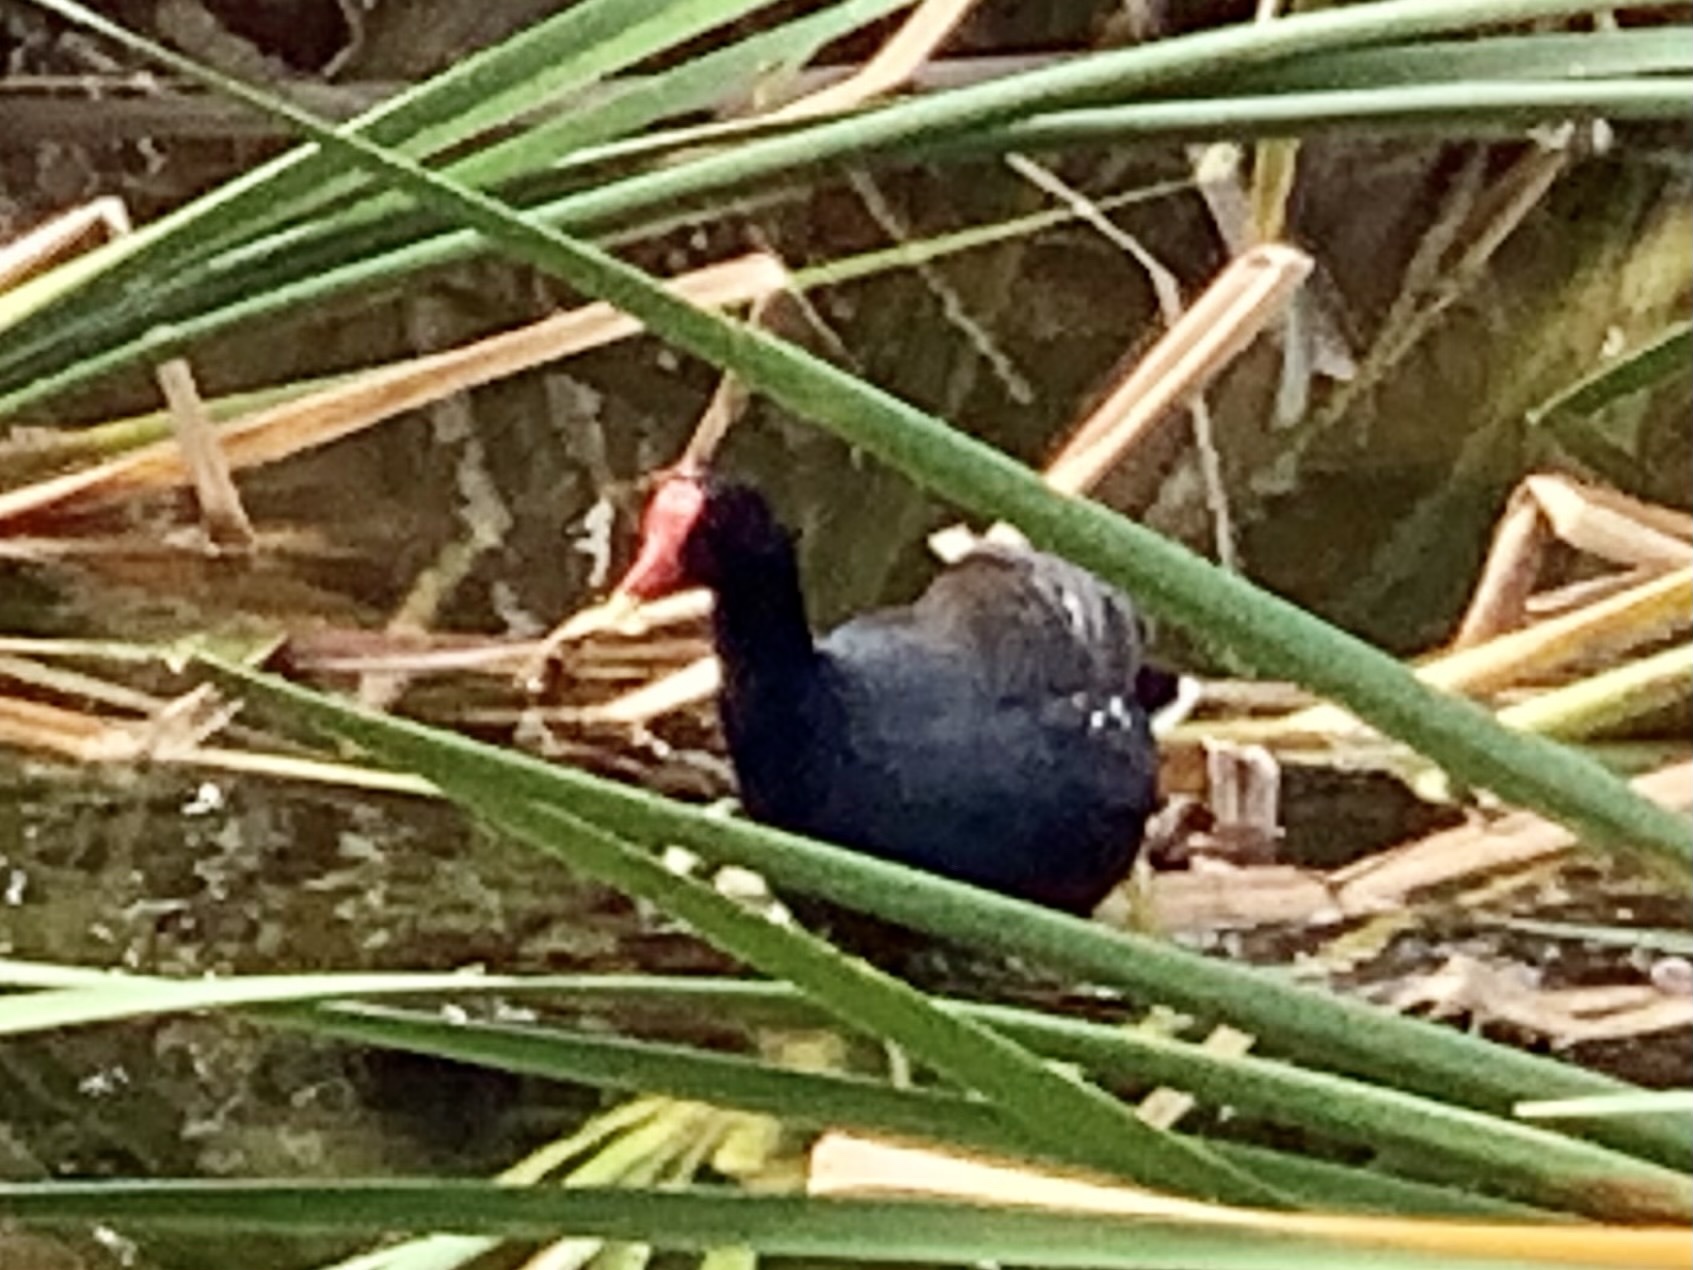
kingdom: Animalia
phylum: Chordata
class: Aves
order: Gruiformes
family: Rallidae
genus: Gallinula
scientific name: Gallinula chloropus
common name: Common moorhen
